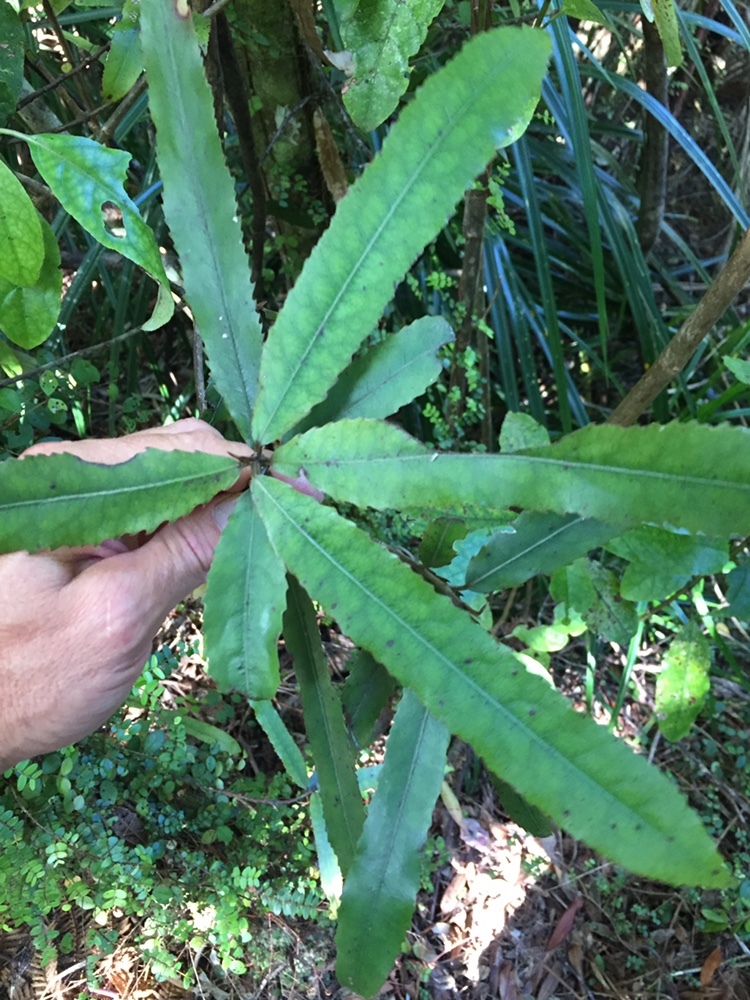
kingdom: Plantae
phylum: Tracheophyta
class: Magnoliopsida
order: Oxalidales
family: Elaeocarpaceae
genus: Elaeocarpus
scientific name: Elaeocarpus dentatus
